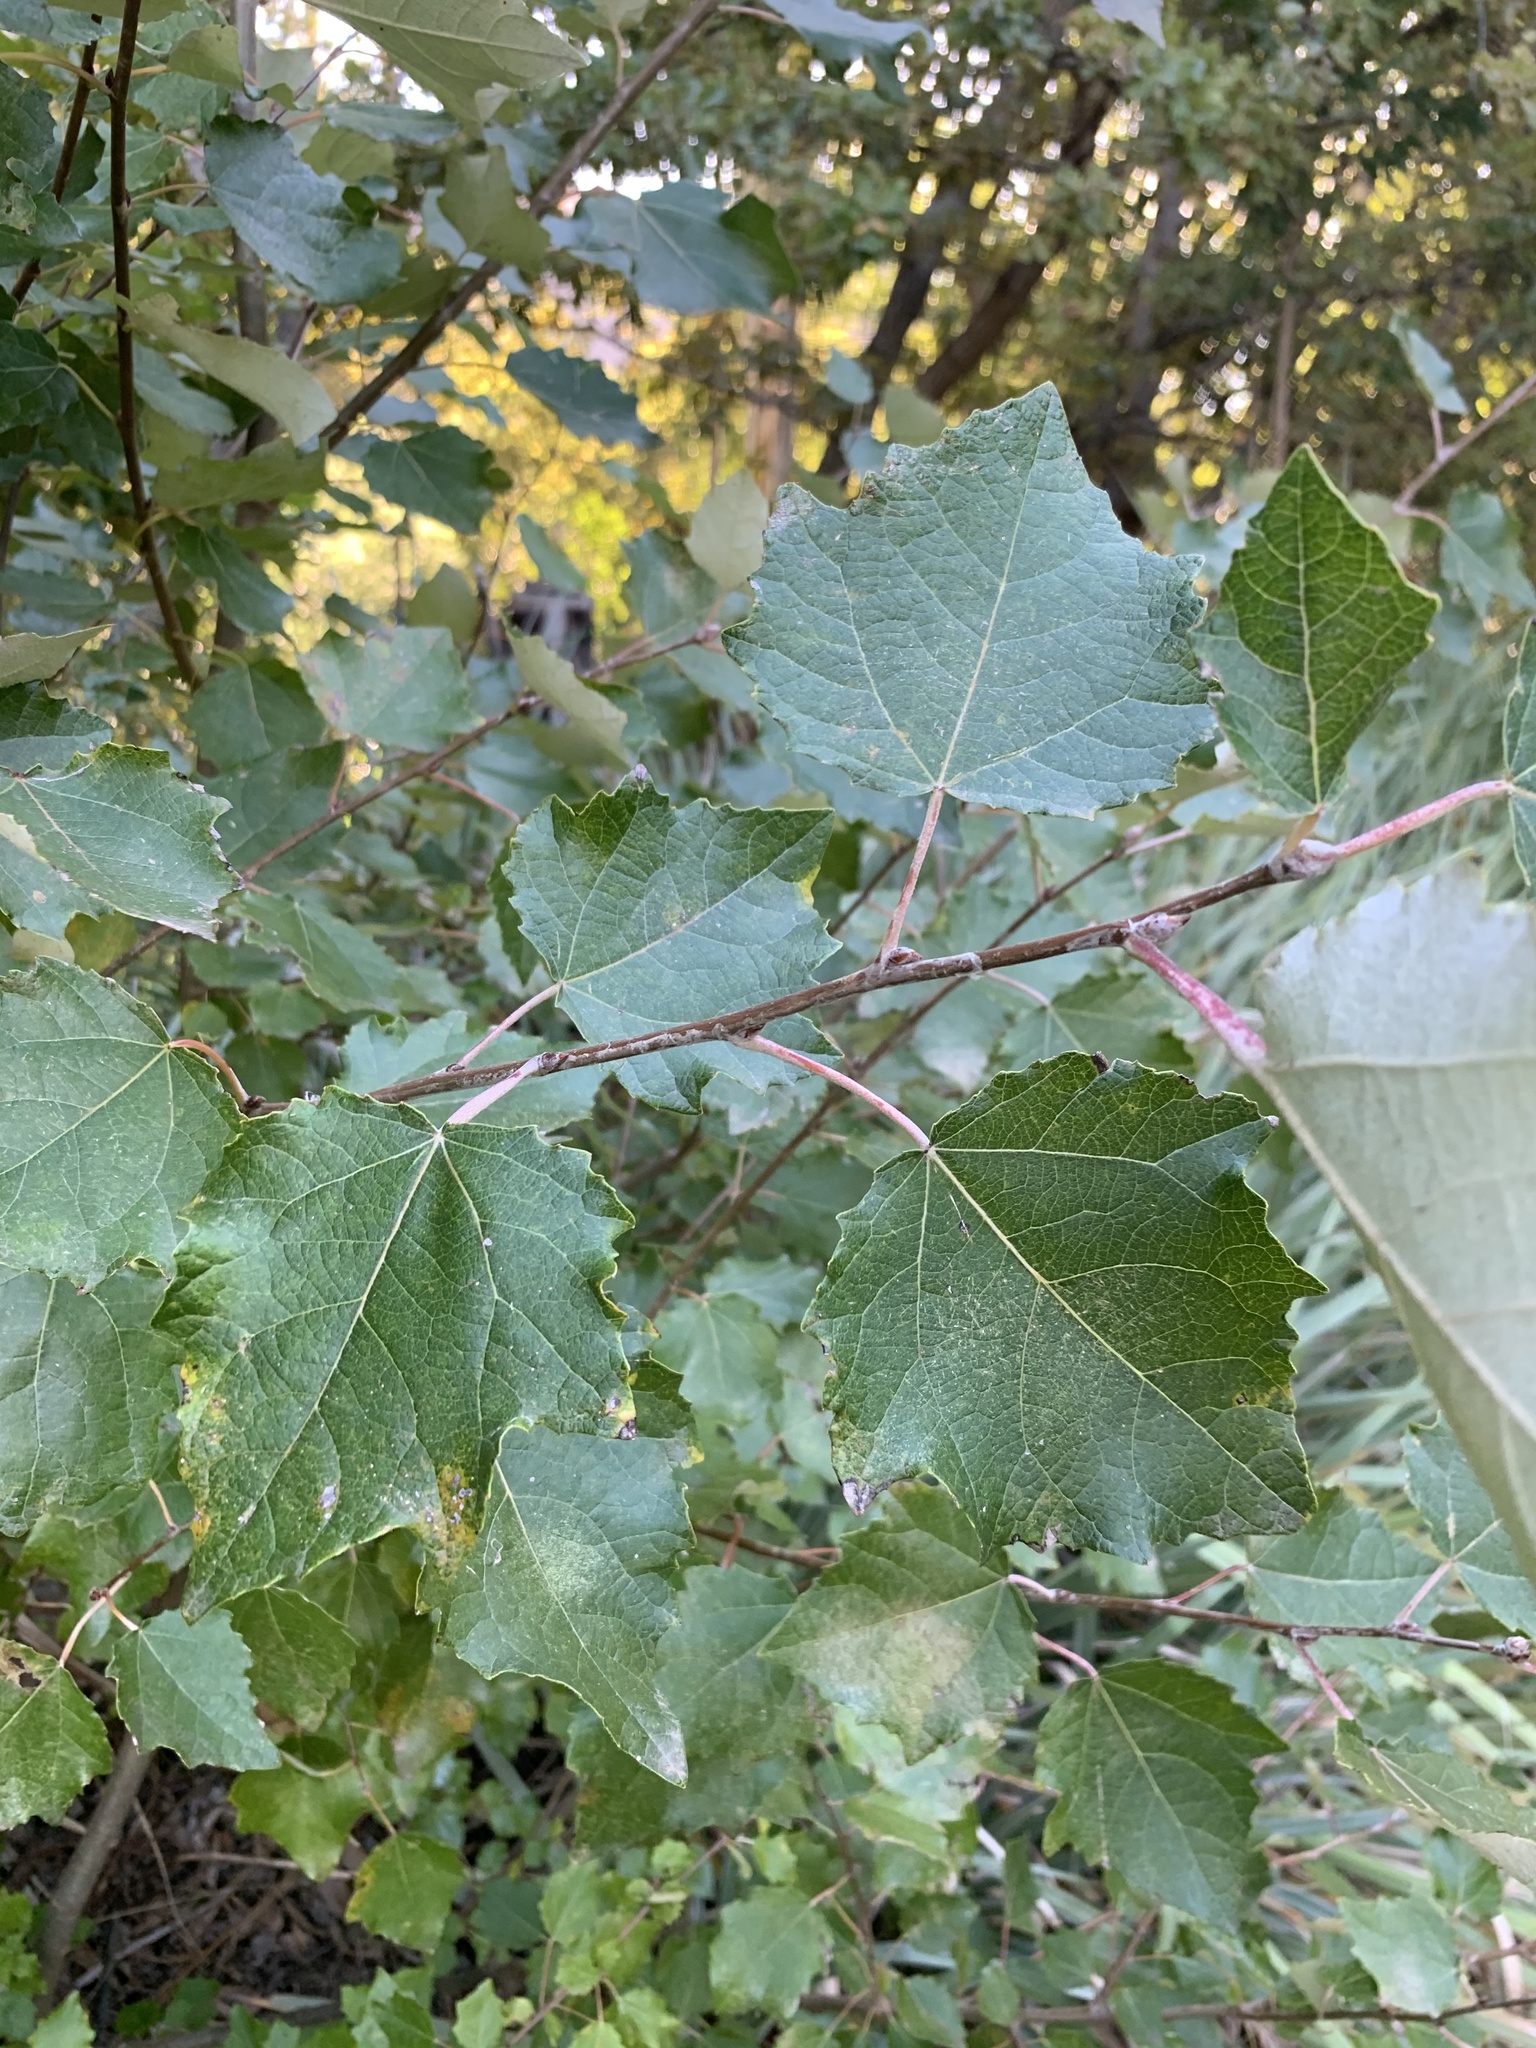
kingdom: Plantae
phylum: Tracheophyta
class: Magnoliopsida
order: Malpighiales
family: Salicaceae
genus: Populus
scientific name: Populus canescens
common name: Gray poplar
